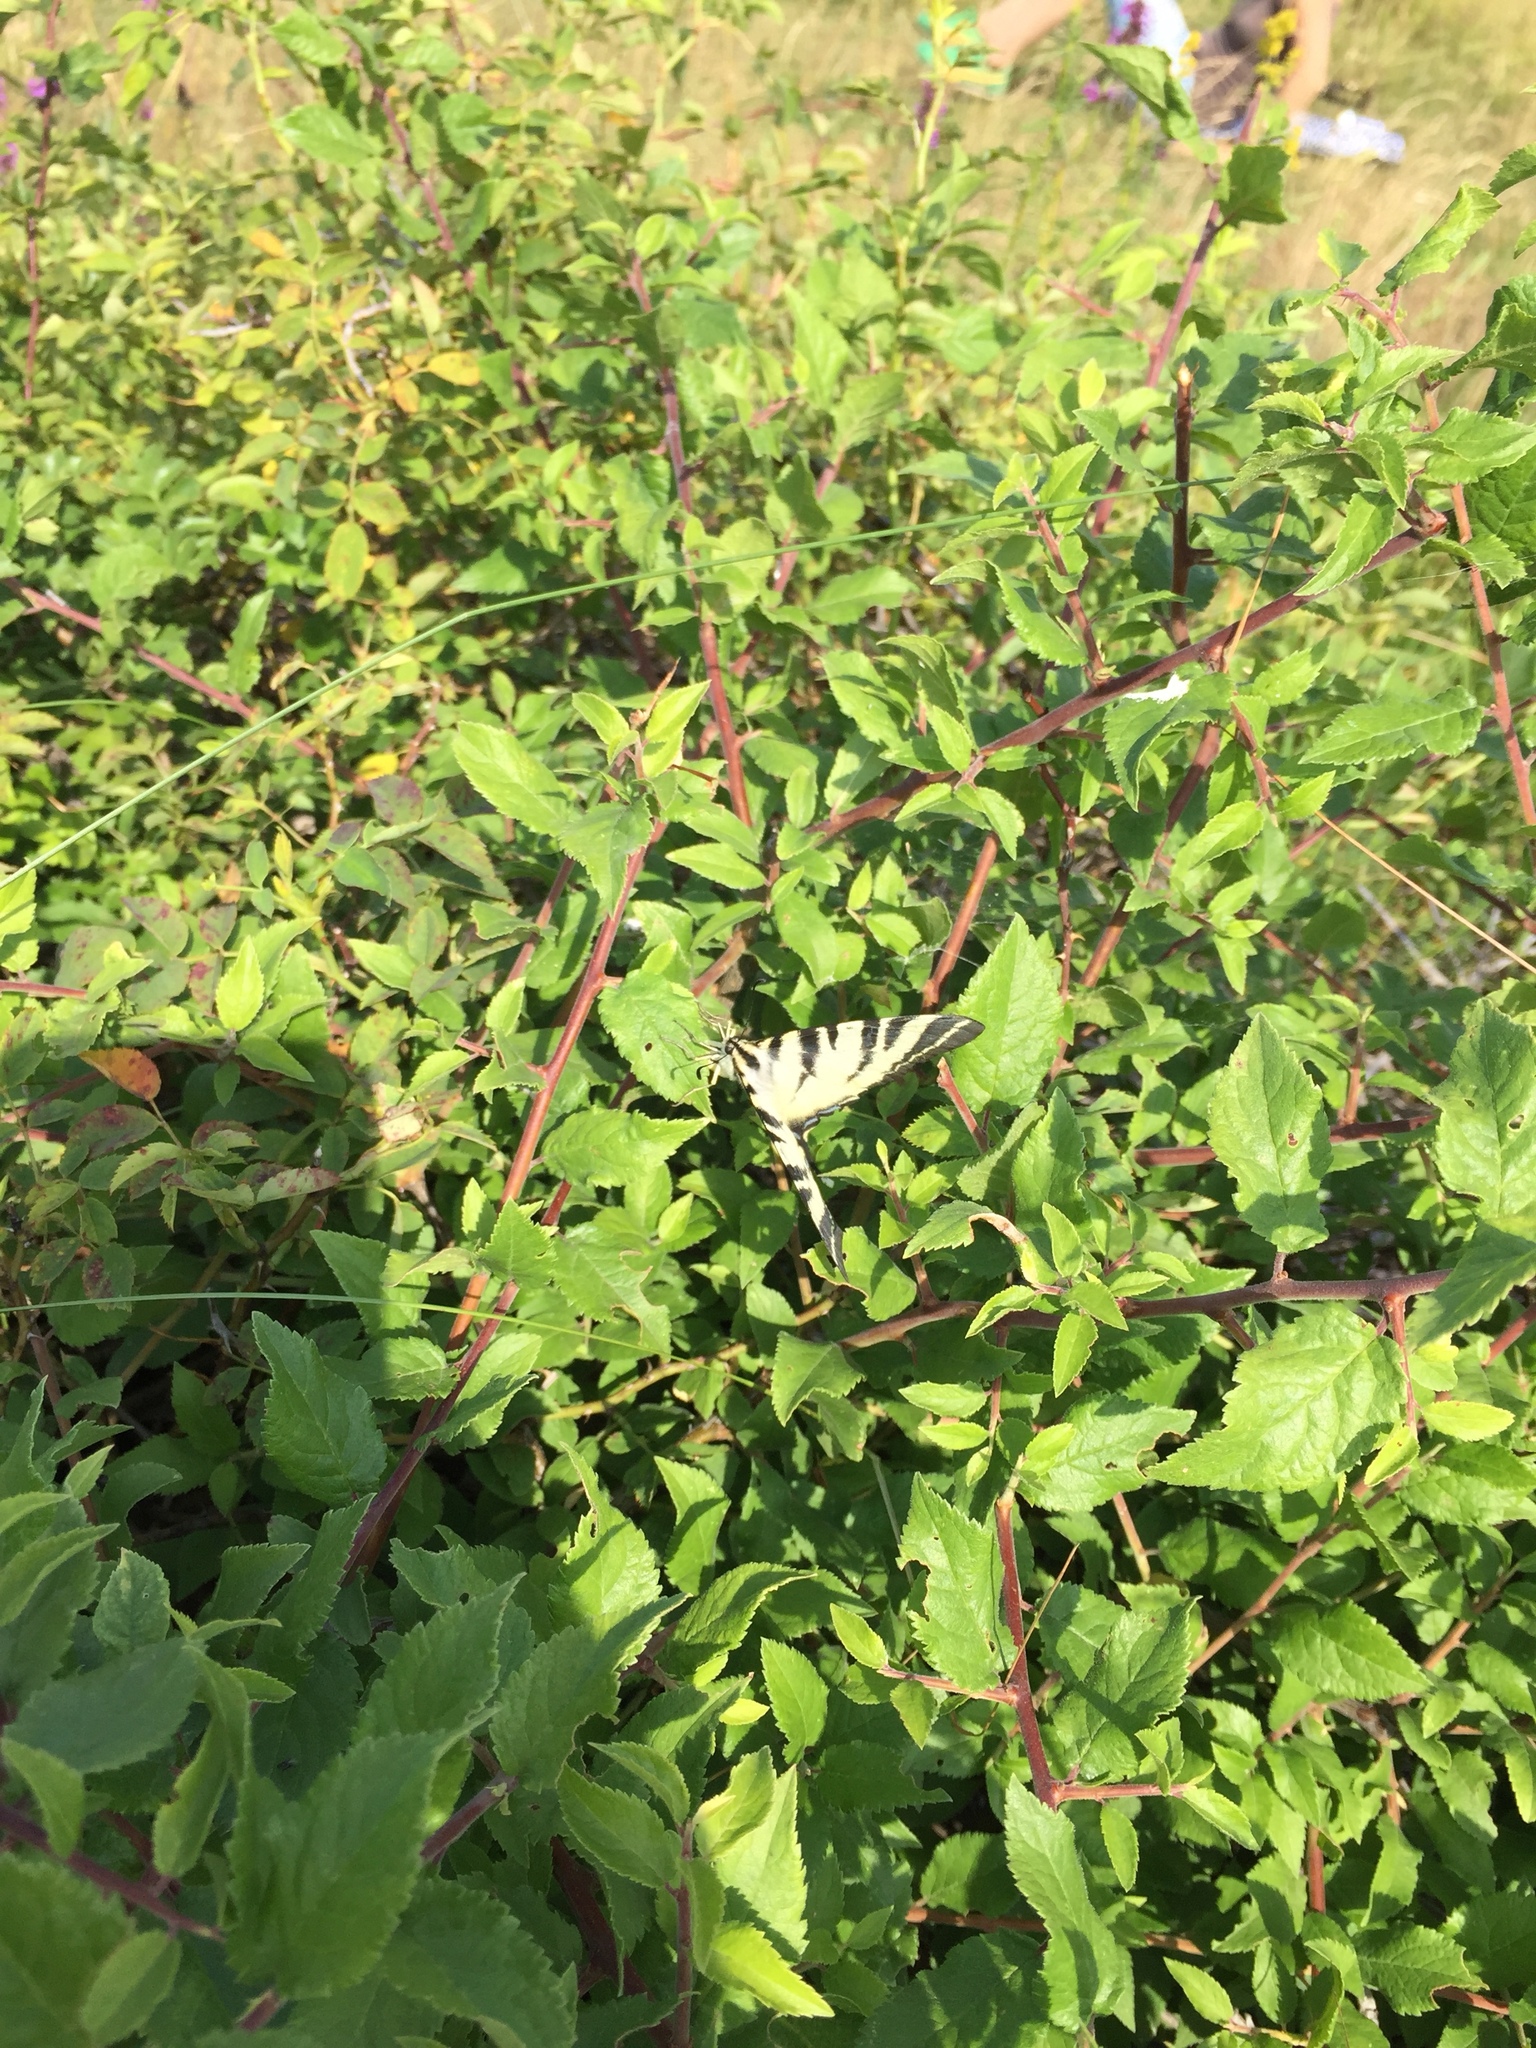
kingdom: Animalia
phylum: Arthropoda
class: Insecta
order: Lepidoptera
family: Papilionidae
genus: Iphiclides
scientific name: Iphiclides podalirius
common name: Scarce swallowtail
